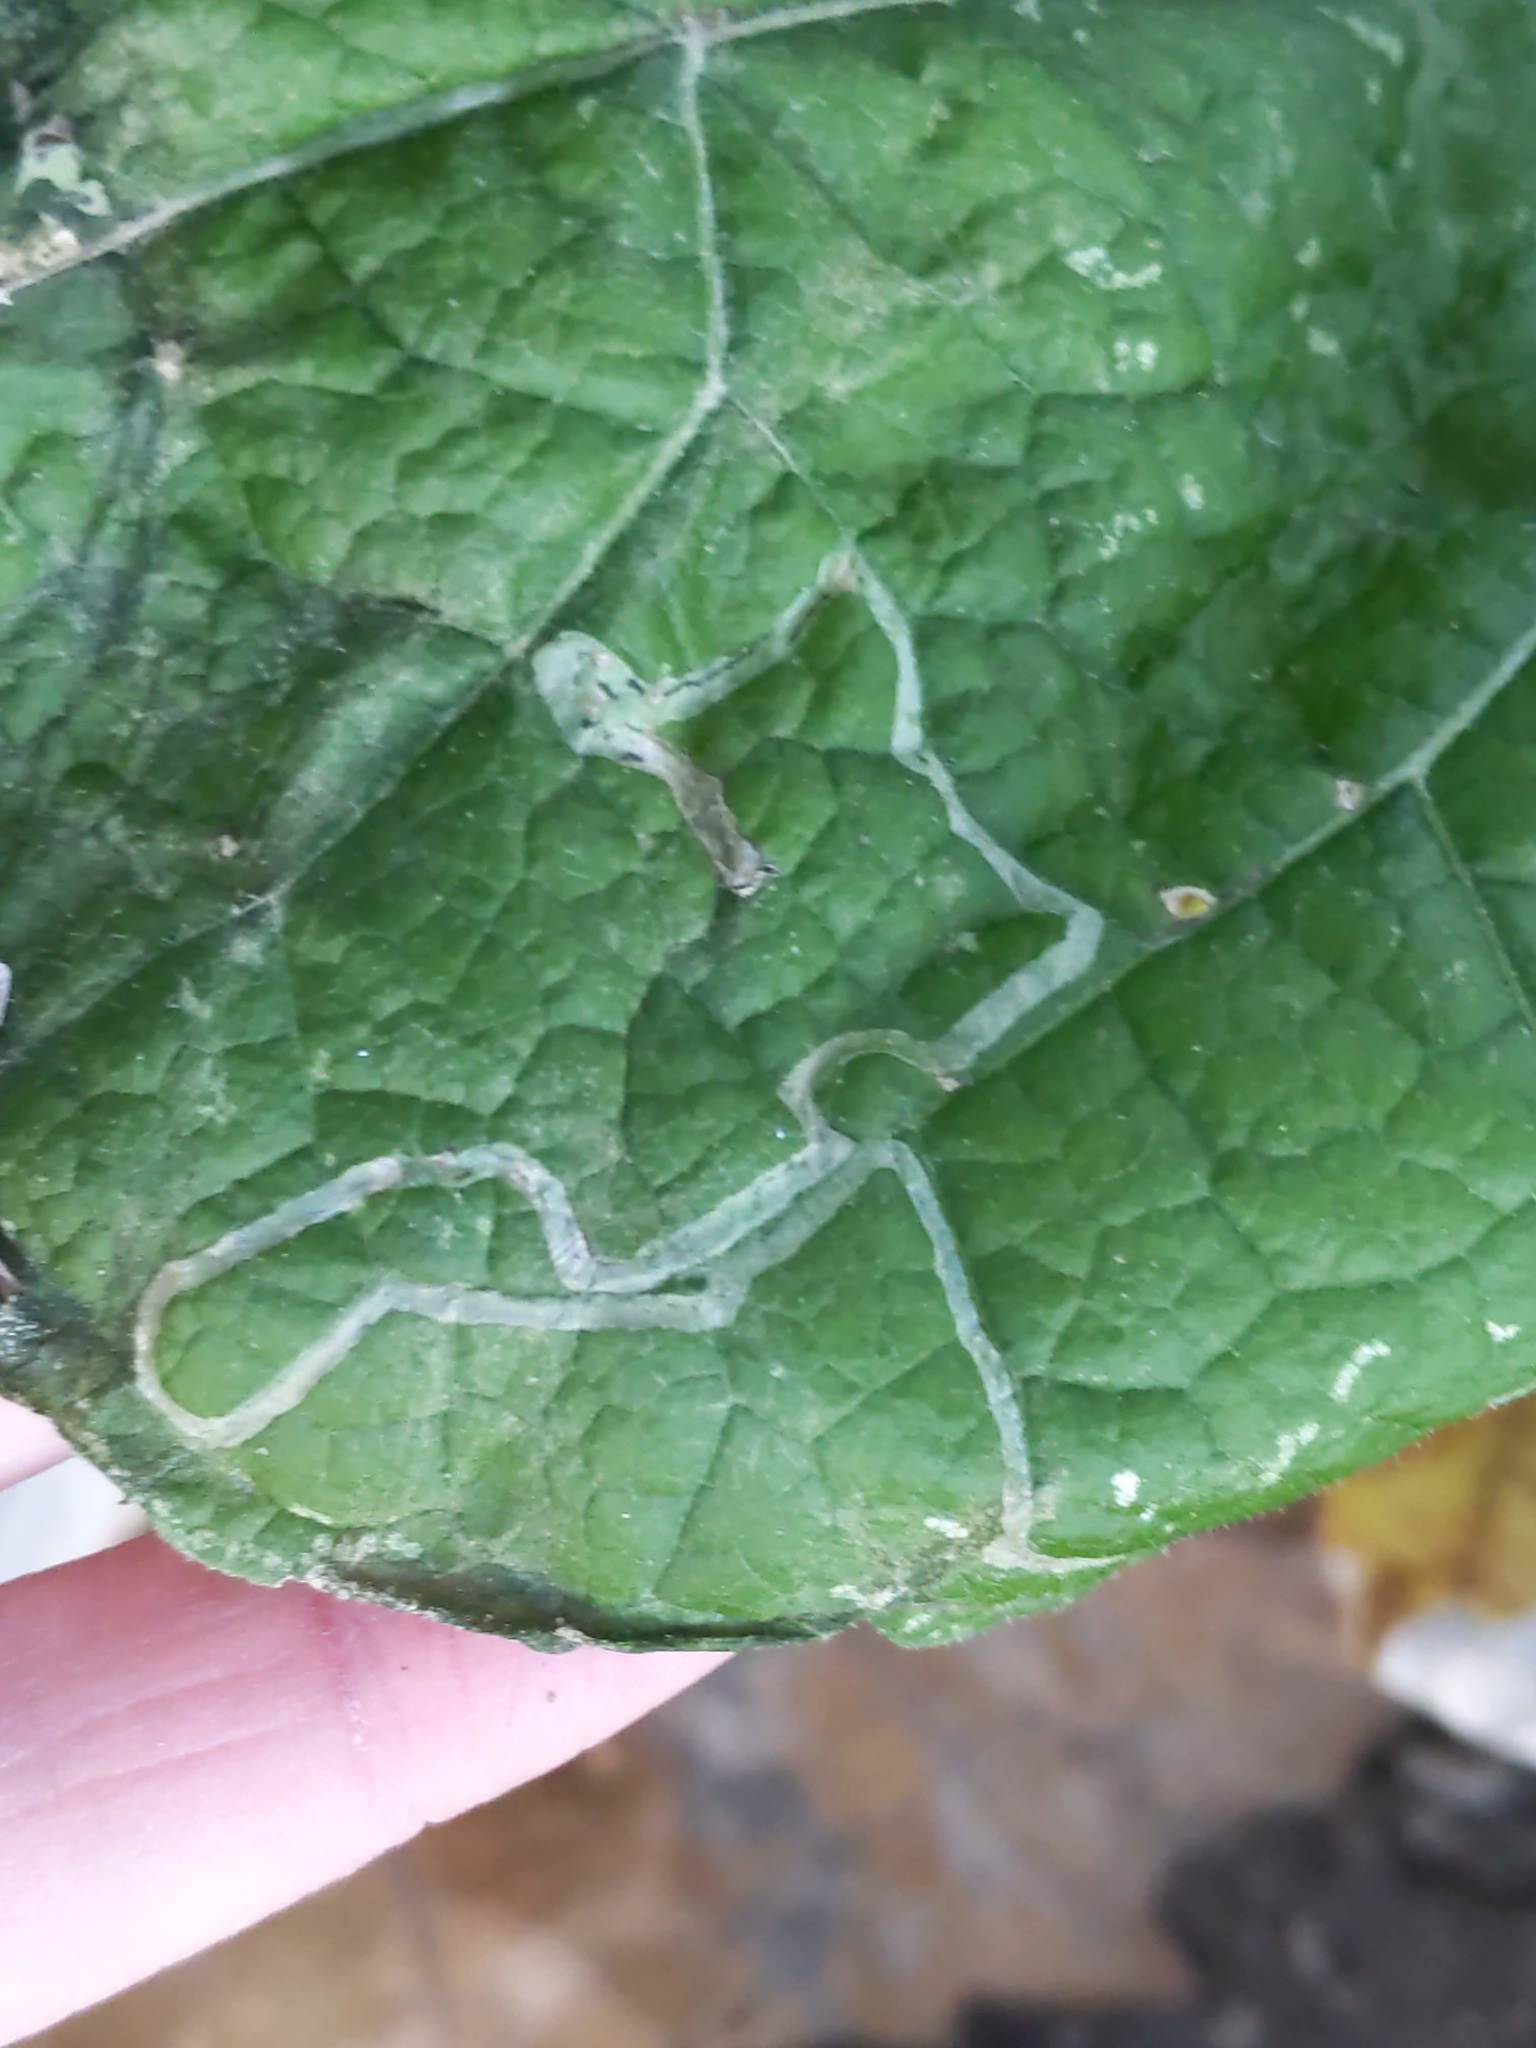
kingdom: Animalia
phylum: Arthropoda
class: Insecta
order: Diptera
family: Agromyzidae
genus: Liriomyza
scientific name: Liriomyza arctii
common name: Burdock leafminer
